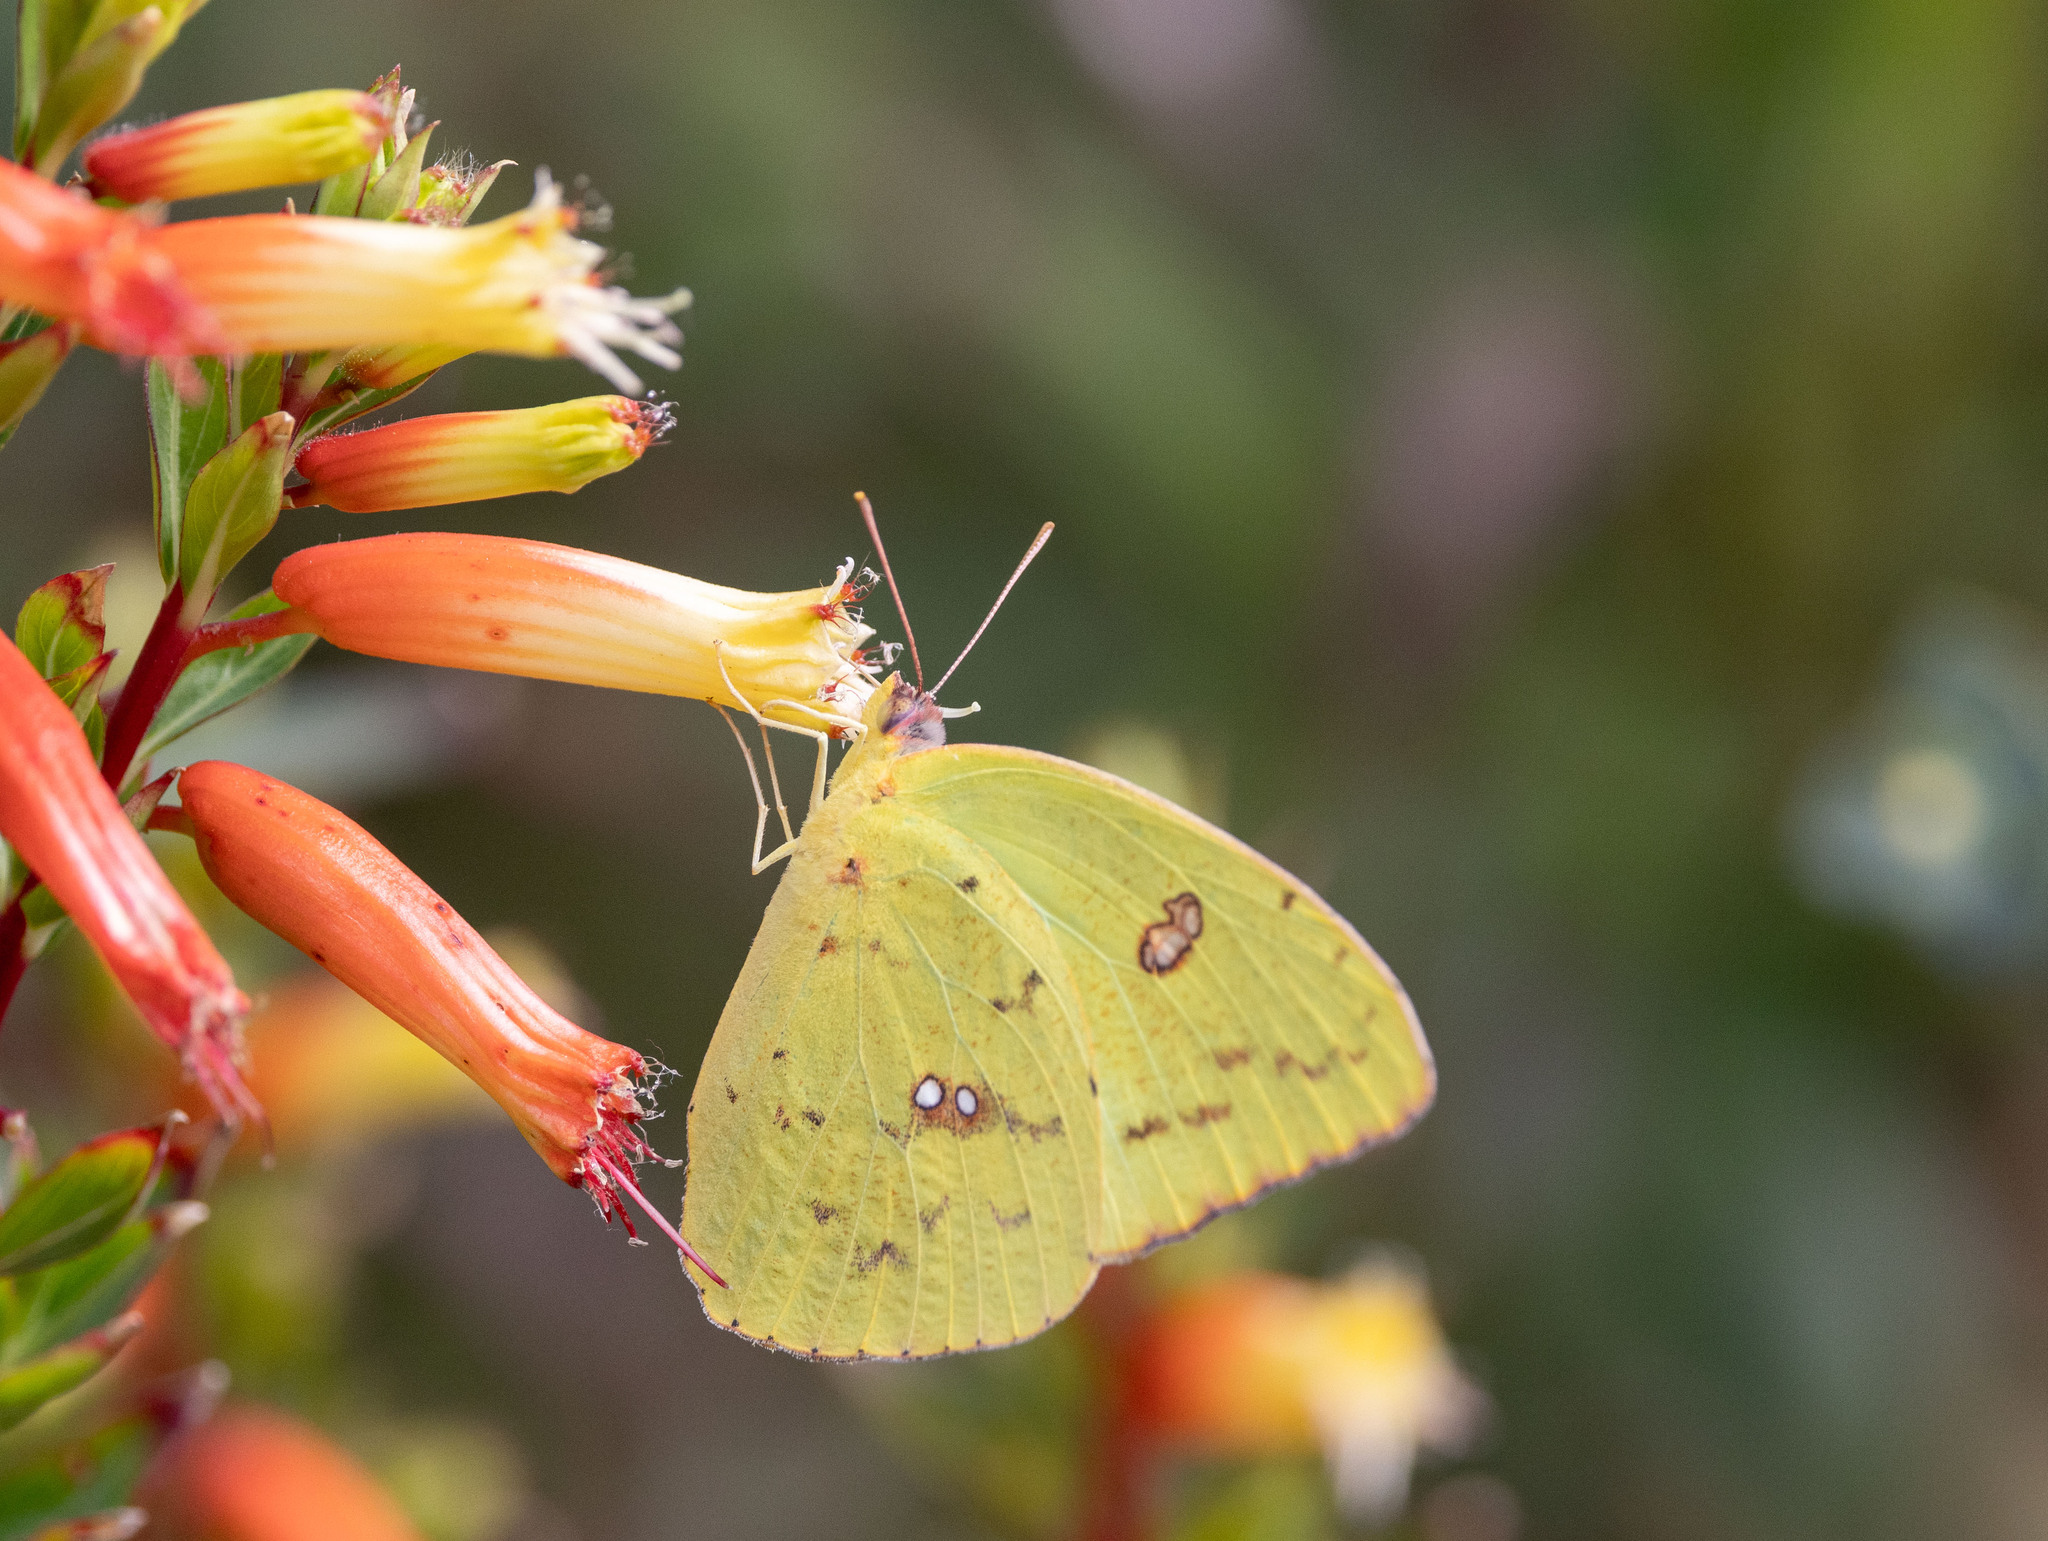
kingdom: Animalia
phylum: Arthropoda
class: Insecta
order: Lepidoptera
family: Pieridae
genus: Phoebis
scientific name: Phoebis sennae
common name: Cloudless sulphur
